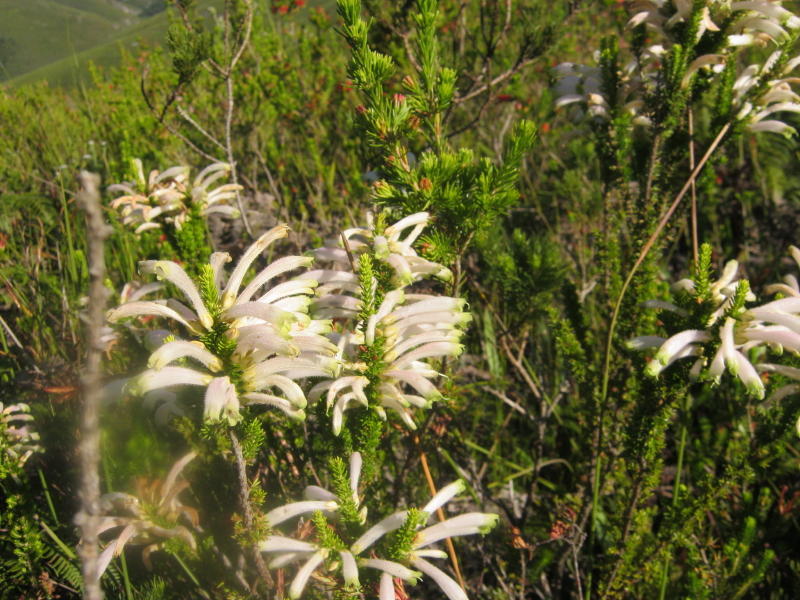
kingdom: Plantae
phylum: Tracheophyta
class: Magnoliopsida
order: Ericales
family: Ericaceae
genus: Erica
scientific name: Erica densifolia
